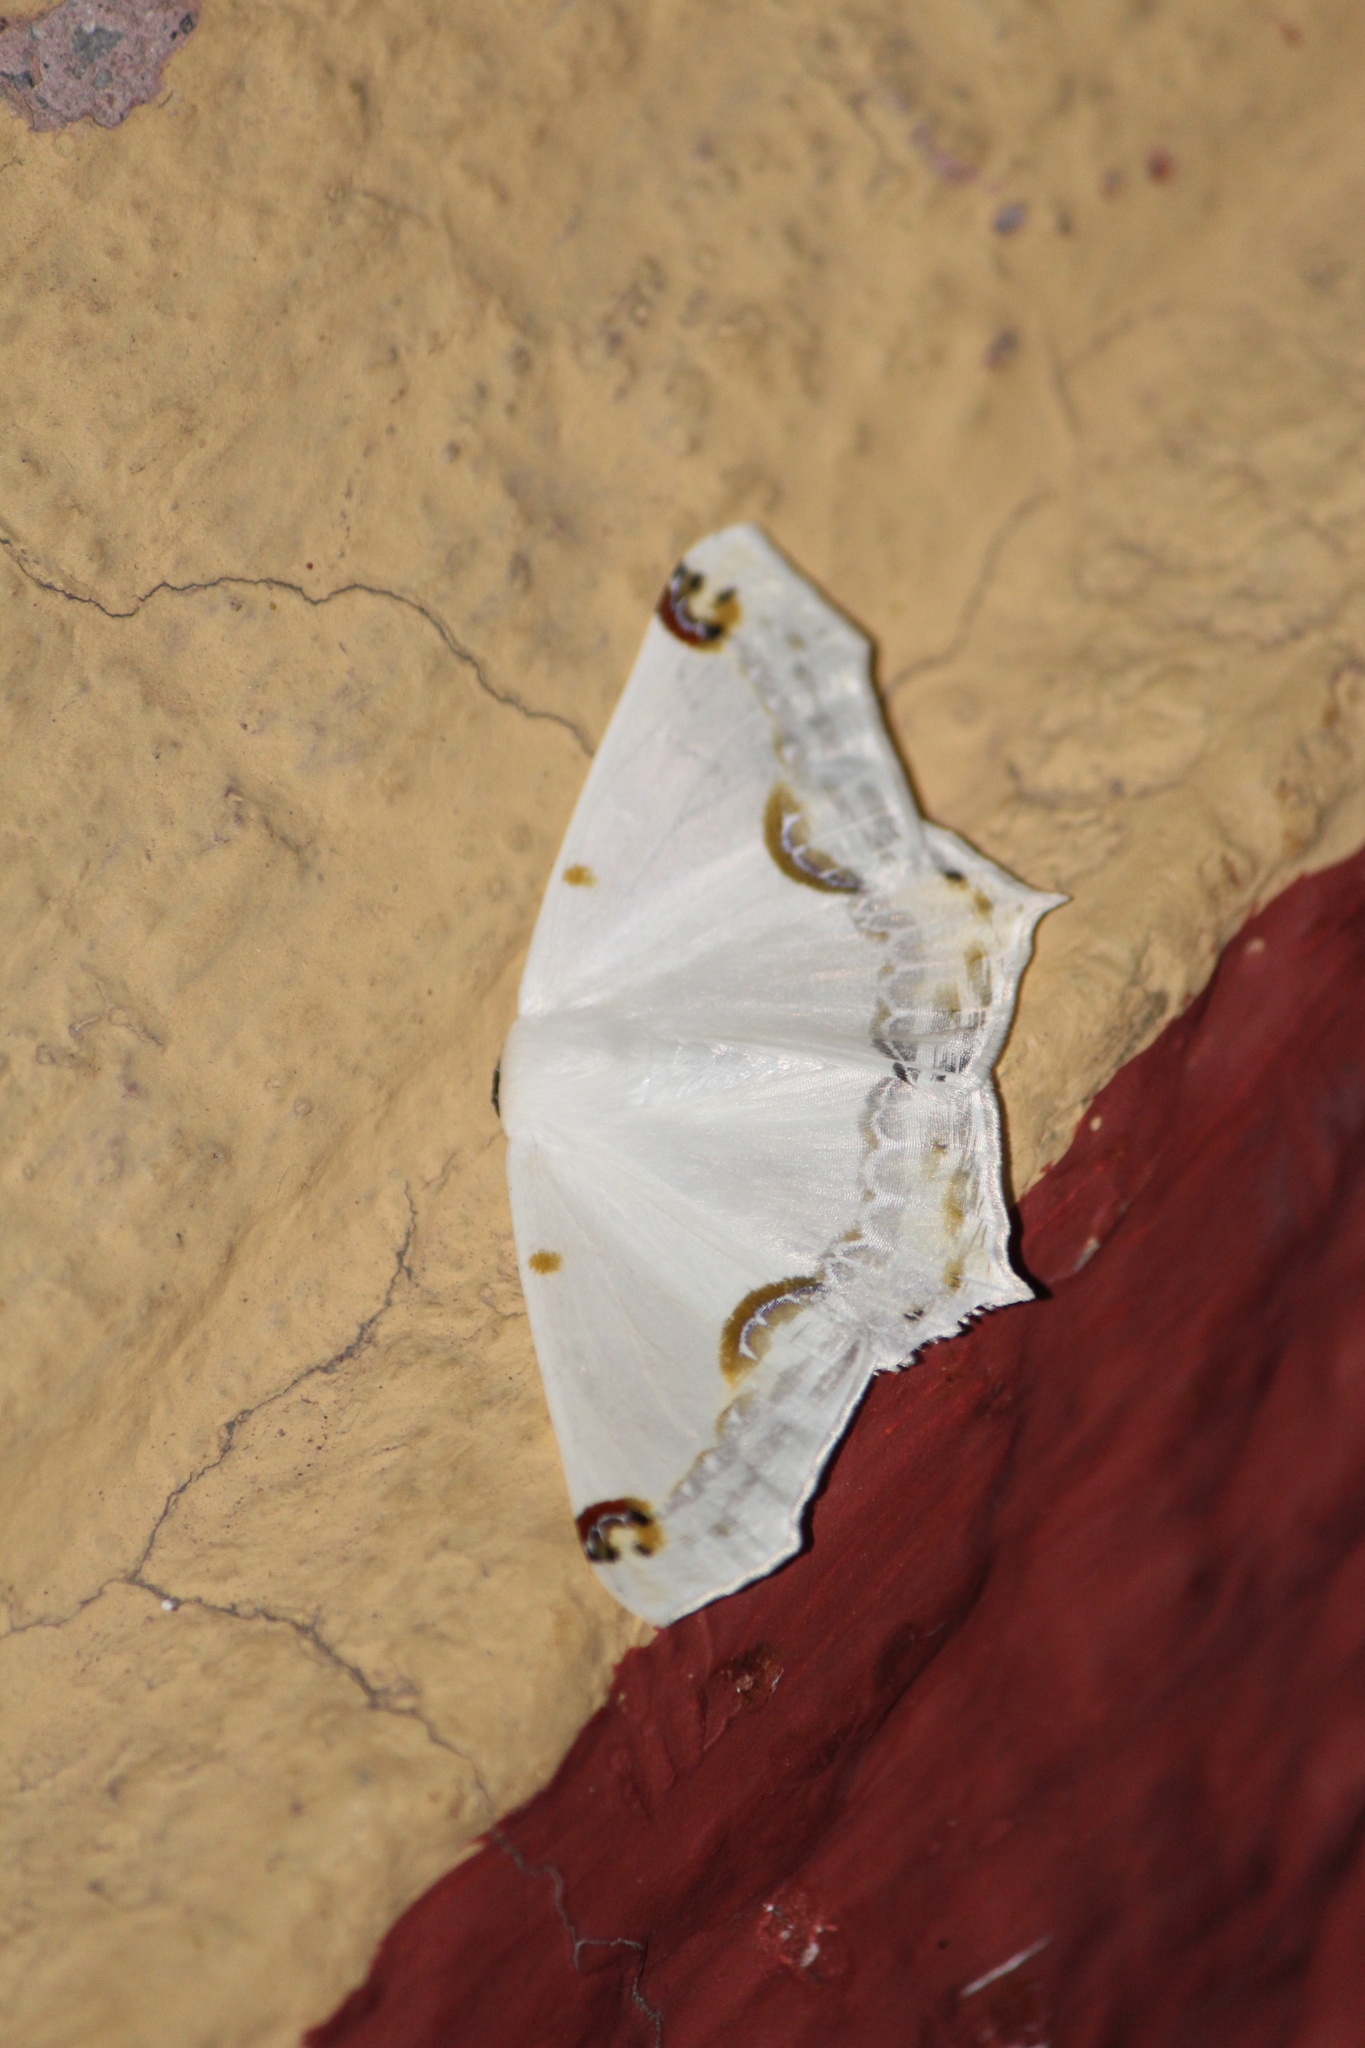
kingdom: Animalia
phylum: Arthropoda
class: Insecta
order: Lepidoptera
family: Geometridae
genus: Sericoptera
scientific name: Sericoptera mahometaria
